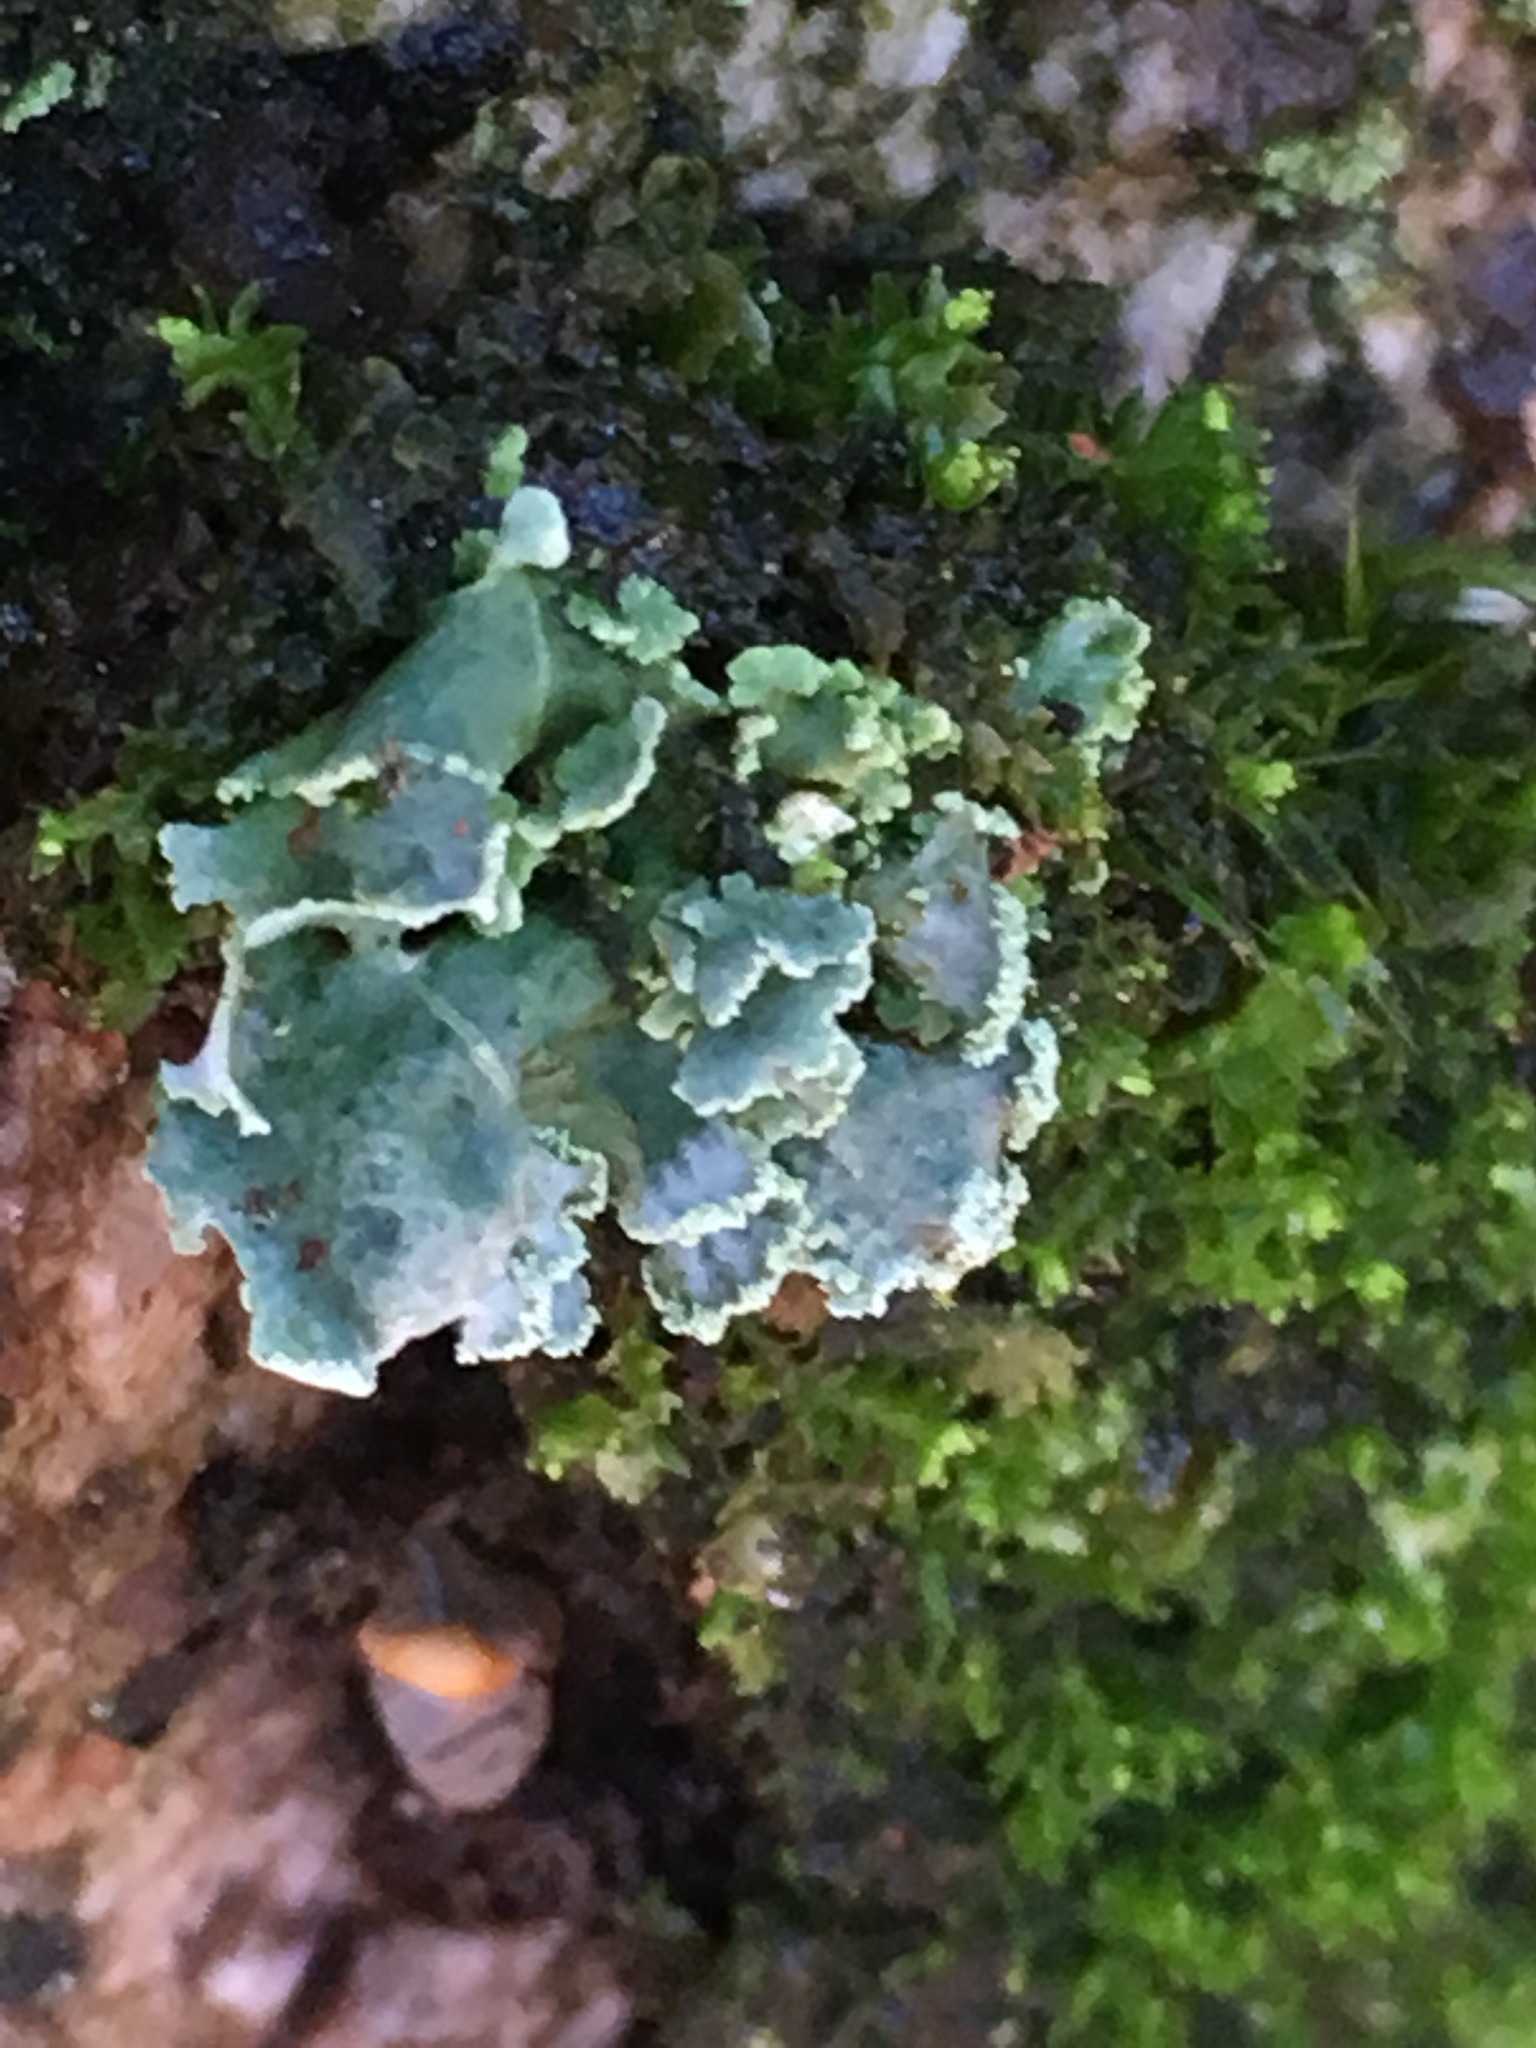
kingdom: Fungi
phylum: Ascomycota
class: Lecanoromycetes
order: Lecanorales
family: Cladoniaceae
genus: Cladonia
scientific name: Cladonia digitata
